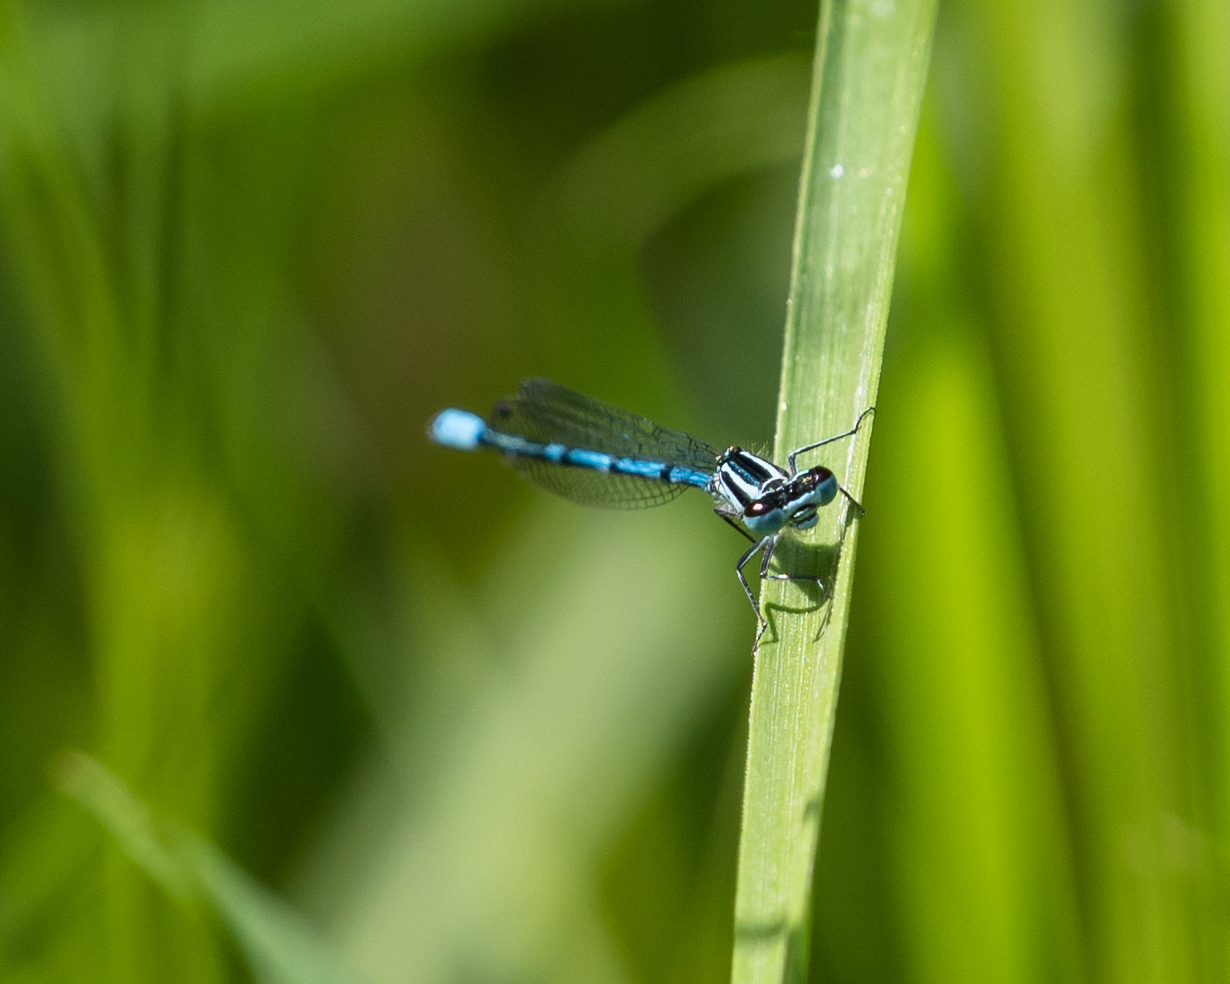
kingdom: Animalia
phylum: Arthropoda
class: Insecta
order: Odonata
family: Coenagrionidae
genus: Coenagrion
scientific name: Coenagrion puella
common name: Azure damselfly
